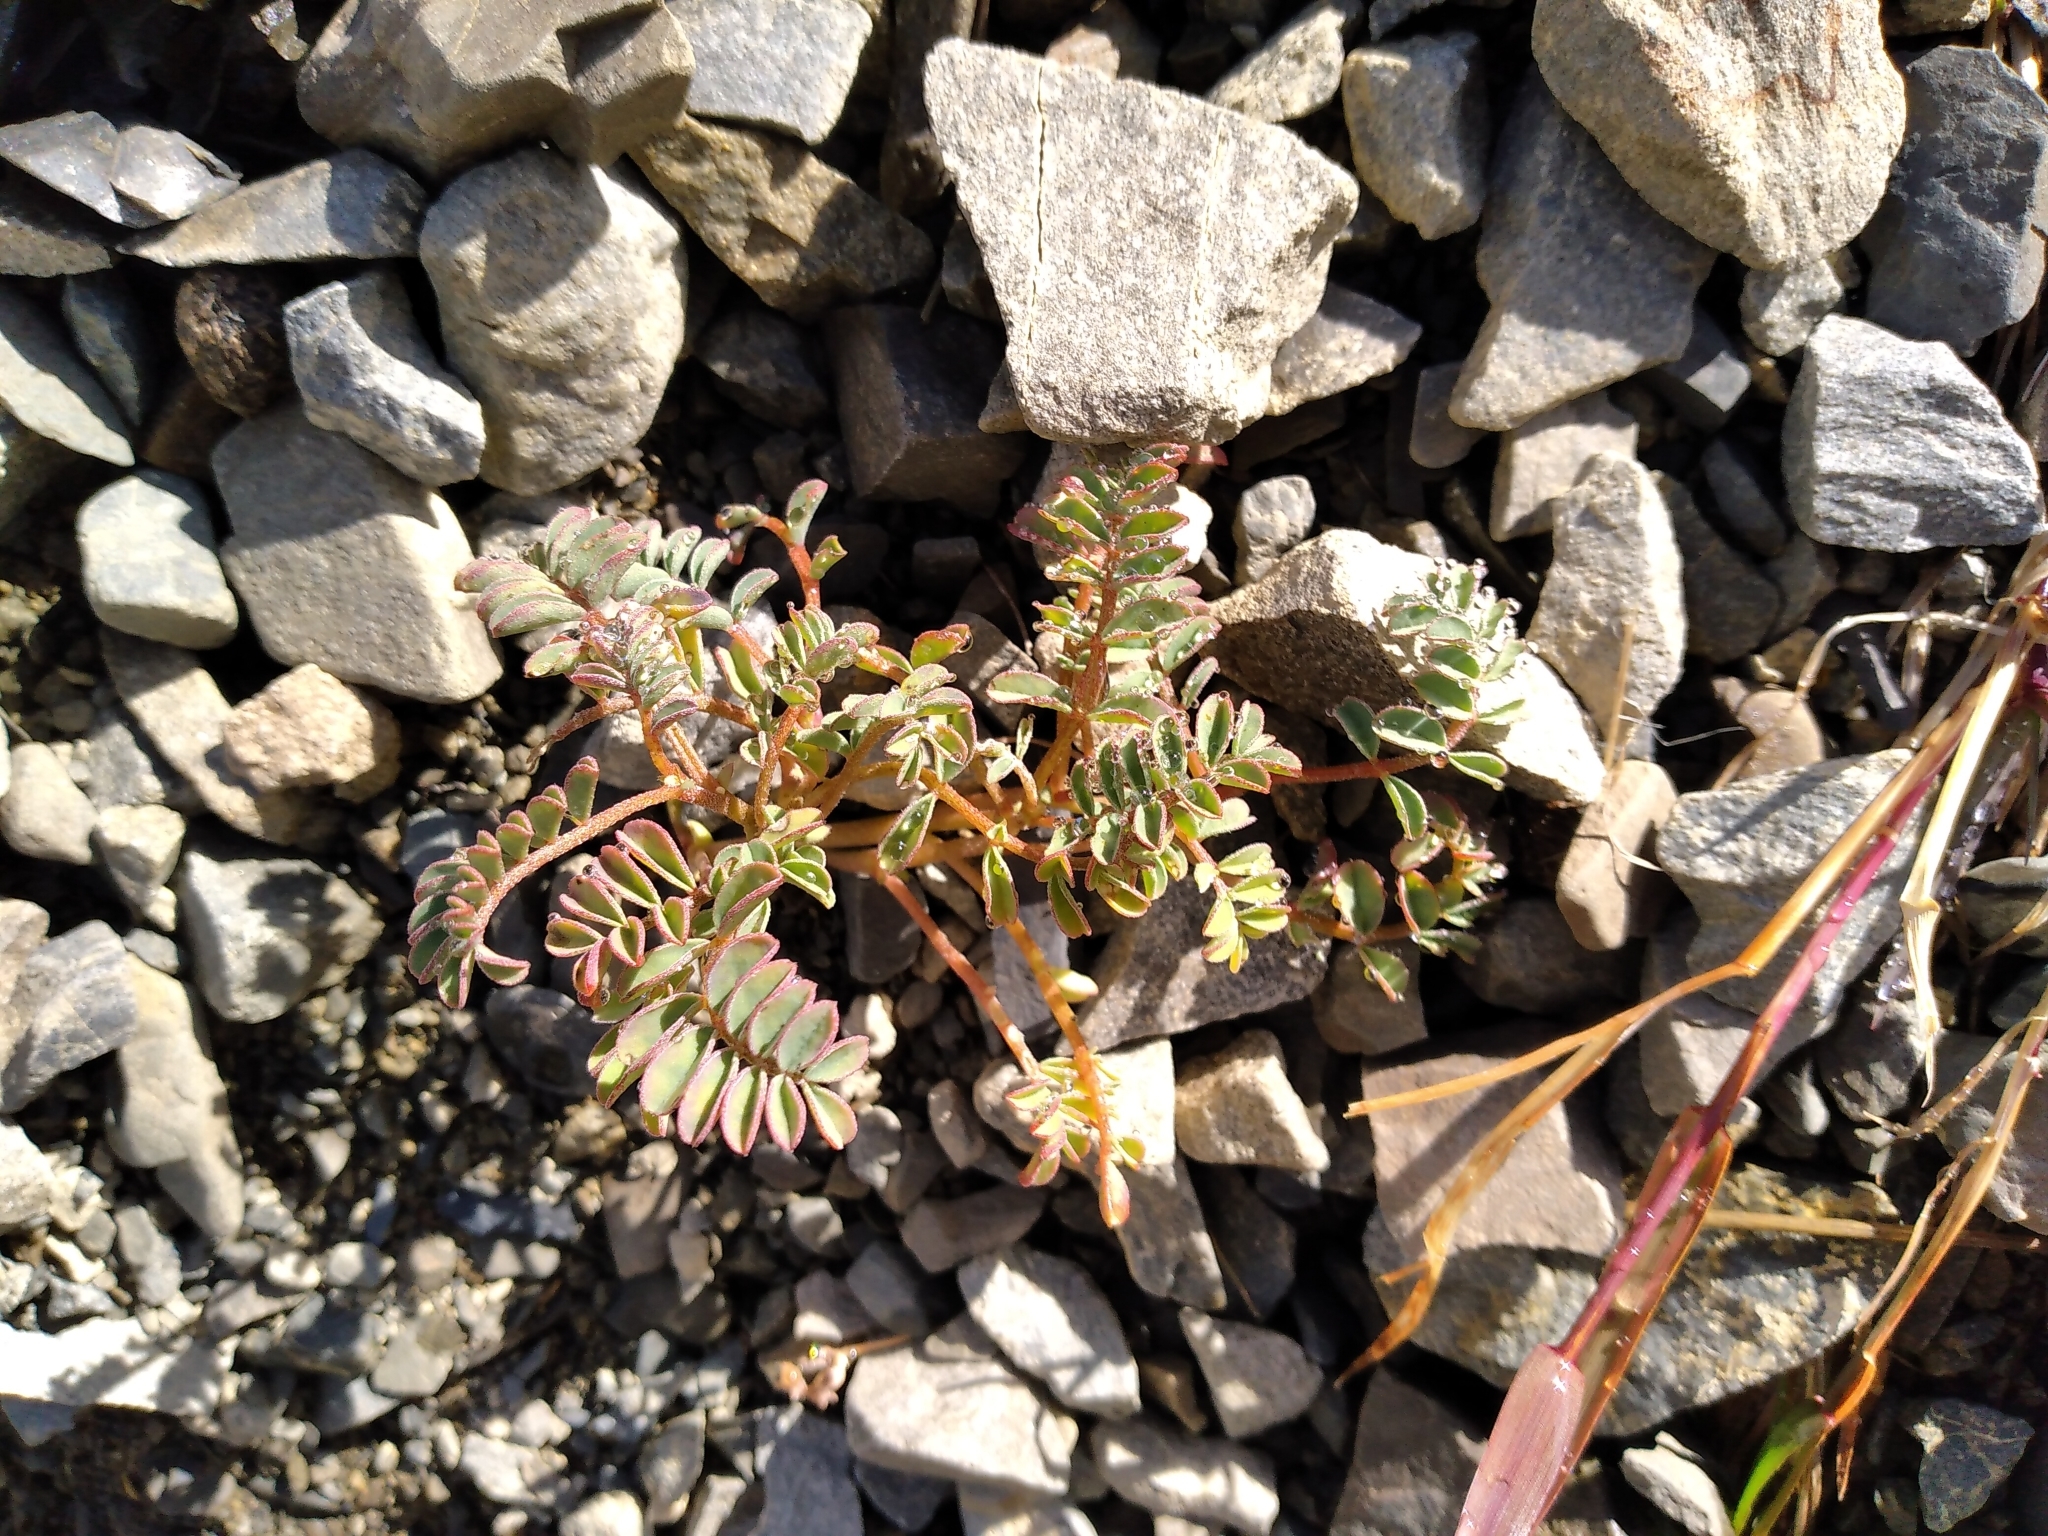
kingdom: Plantae
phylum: Tracheophyta
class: Magnoliopsida
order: Fabales
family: Fabaceae
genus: Montigena
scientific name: Montigena novae-zelandiae
